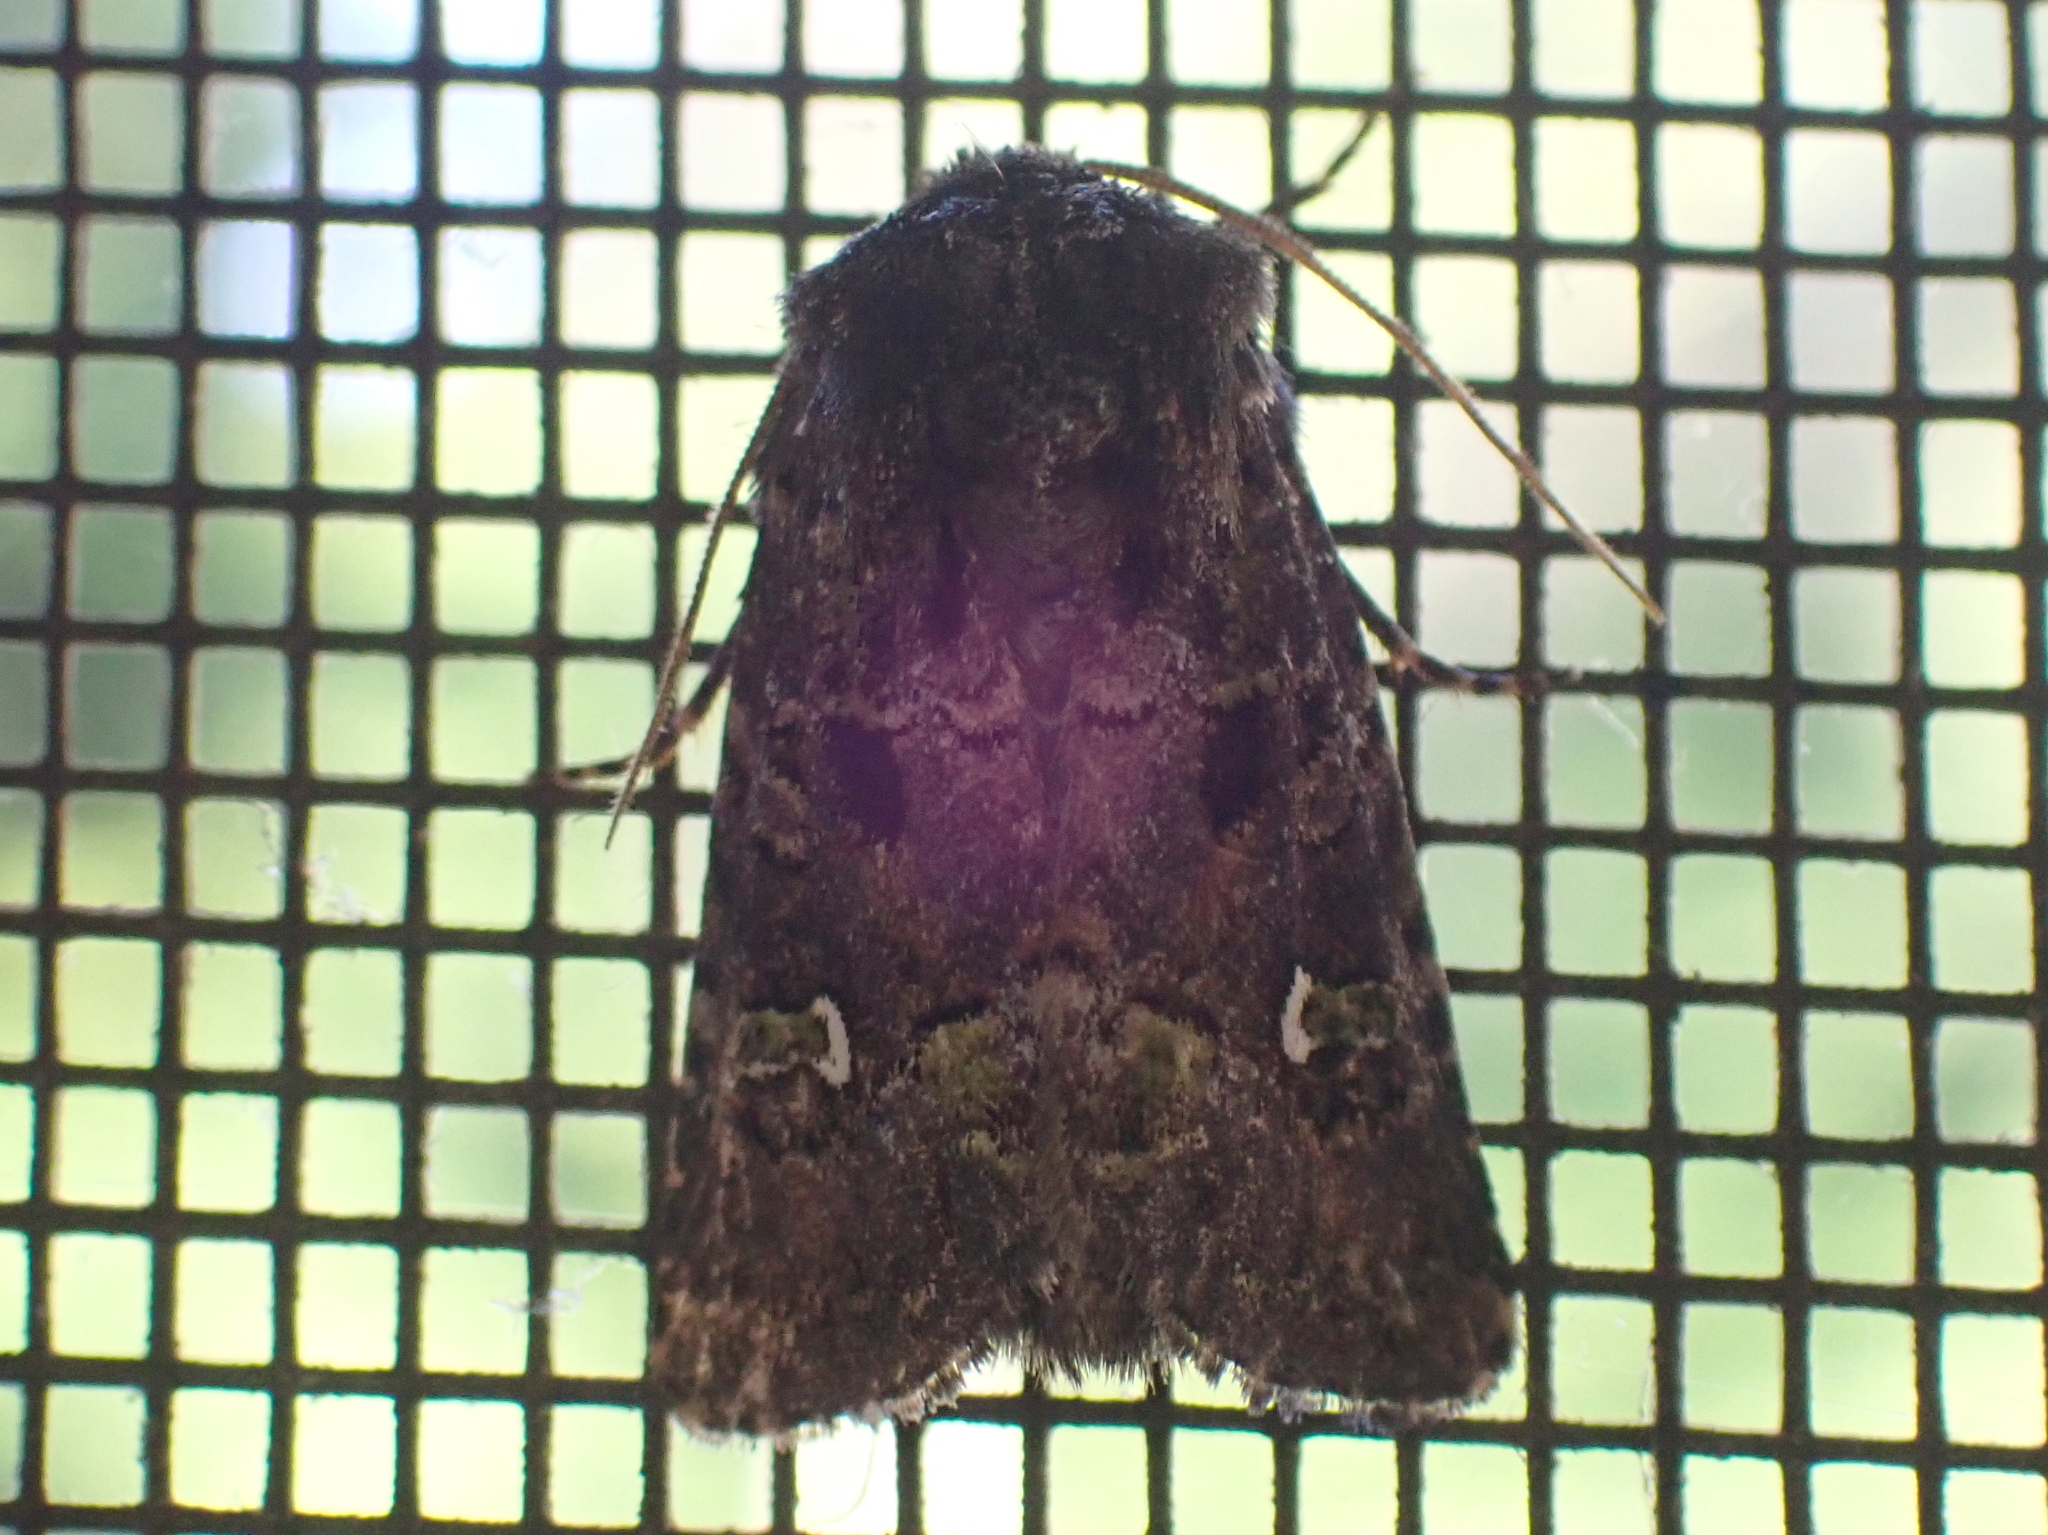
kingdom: Animalia
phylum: Arthropoda
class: Insecta
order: Lepidoptera
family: Noctuidae
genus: Lacinipolia
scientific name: Lacinipolia renigera
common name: Kidney-spotted minor
